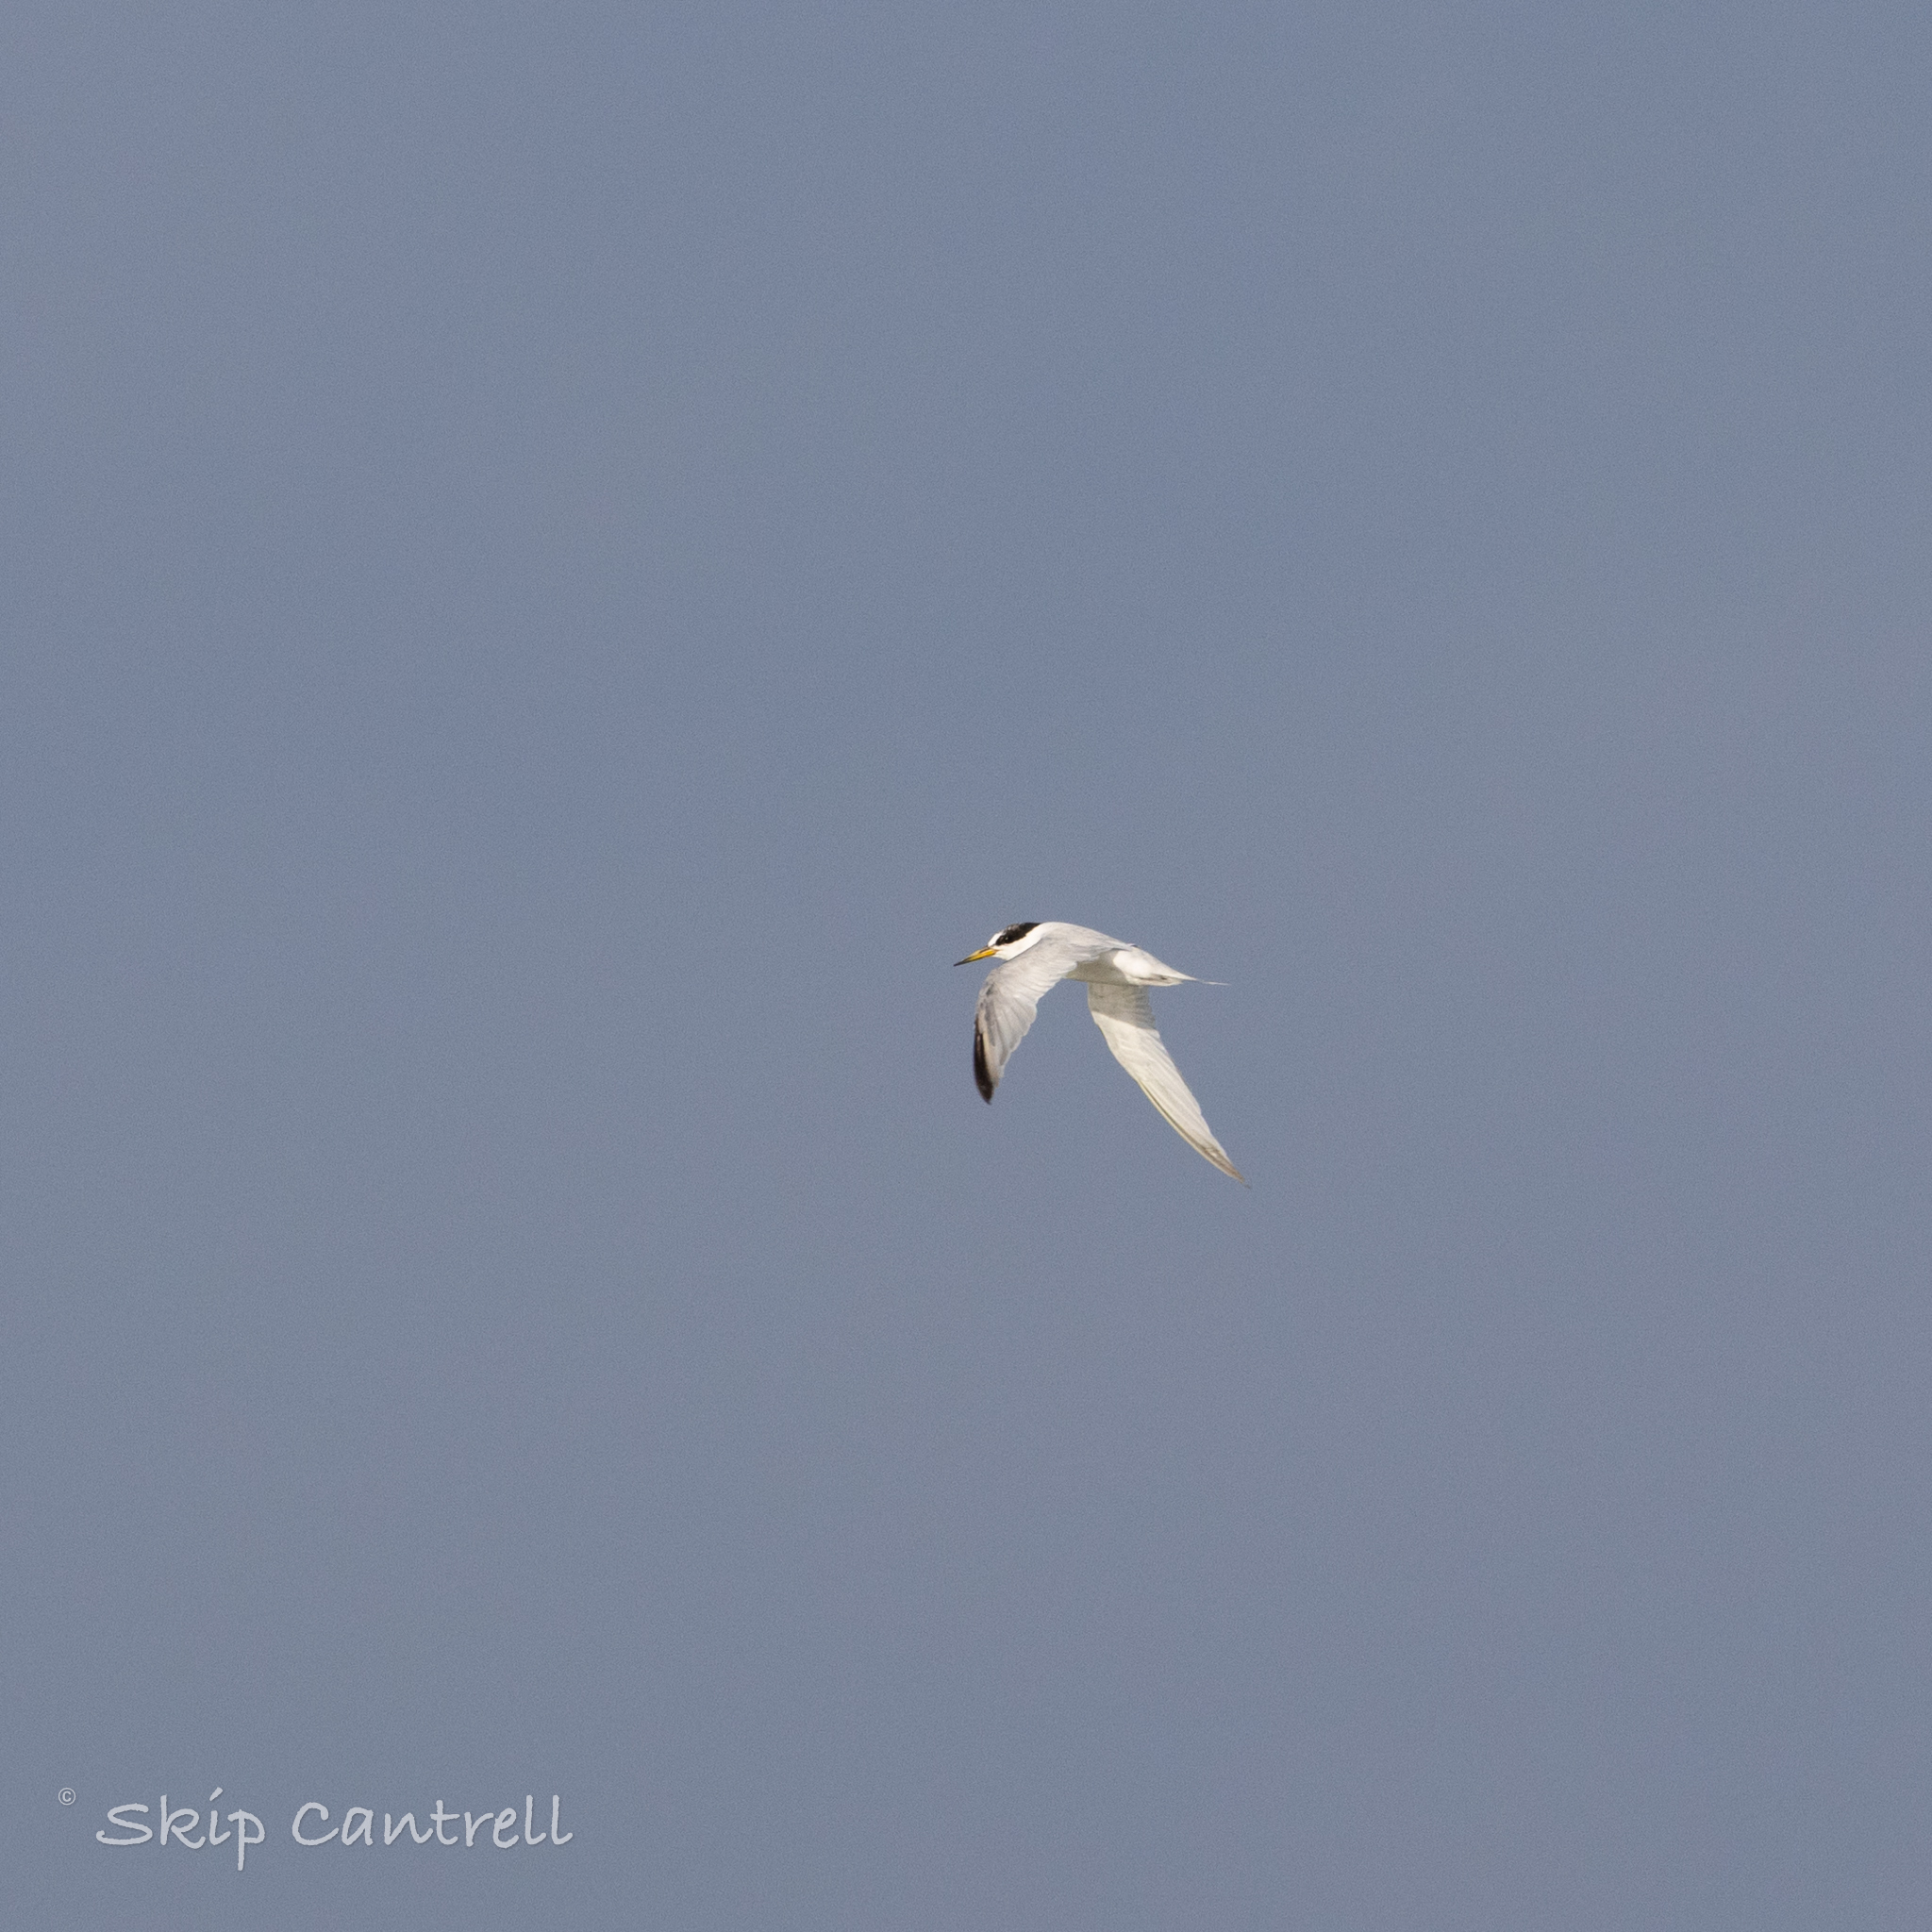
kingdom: Animalia
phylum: Chordata
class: Aves
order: Charadriiformes
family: Laridae
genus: Sternula
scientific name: Sternula antillarum
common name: Least tern
